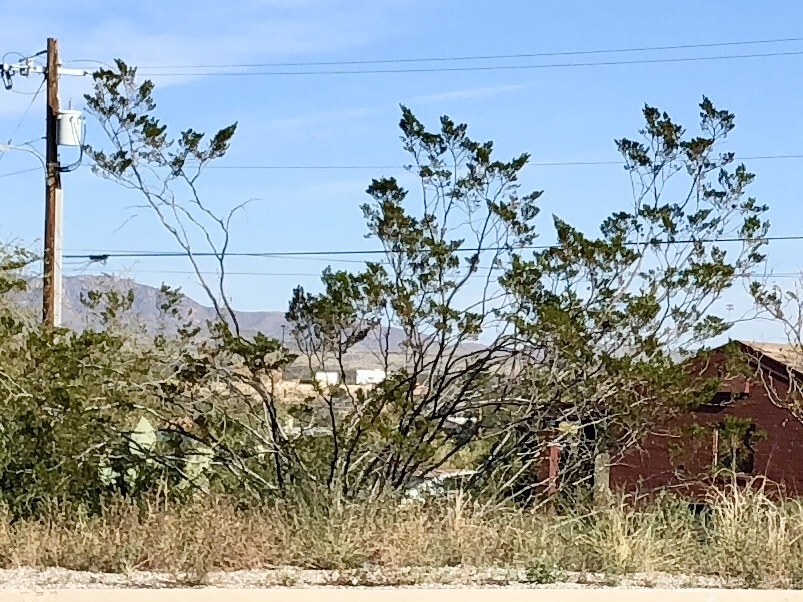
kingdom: Plantae
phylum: Tracheophyta
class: Magnoliopsida
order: Zygophyllales
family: Zygophyllaceae
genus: Larrea
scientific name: Larrea tridentata
